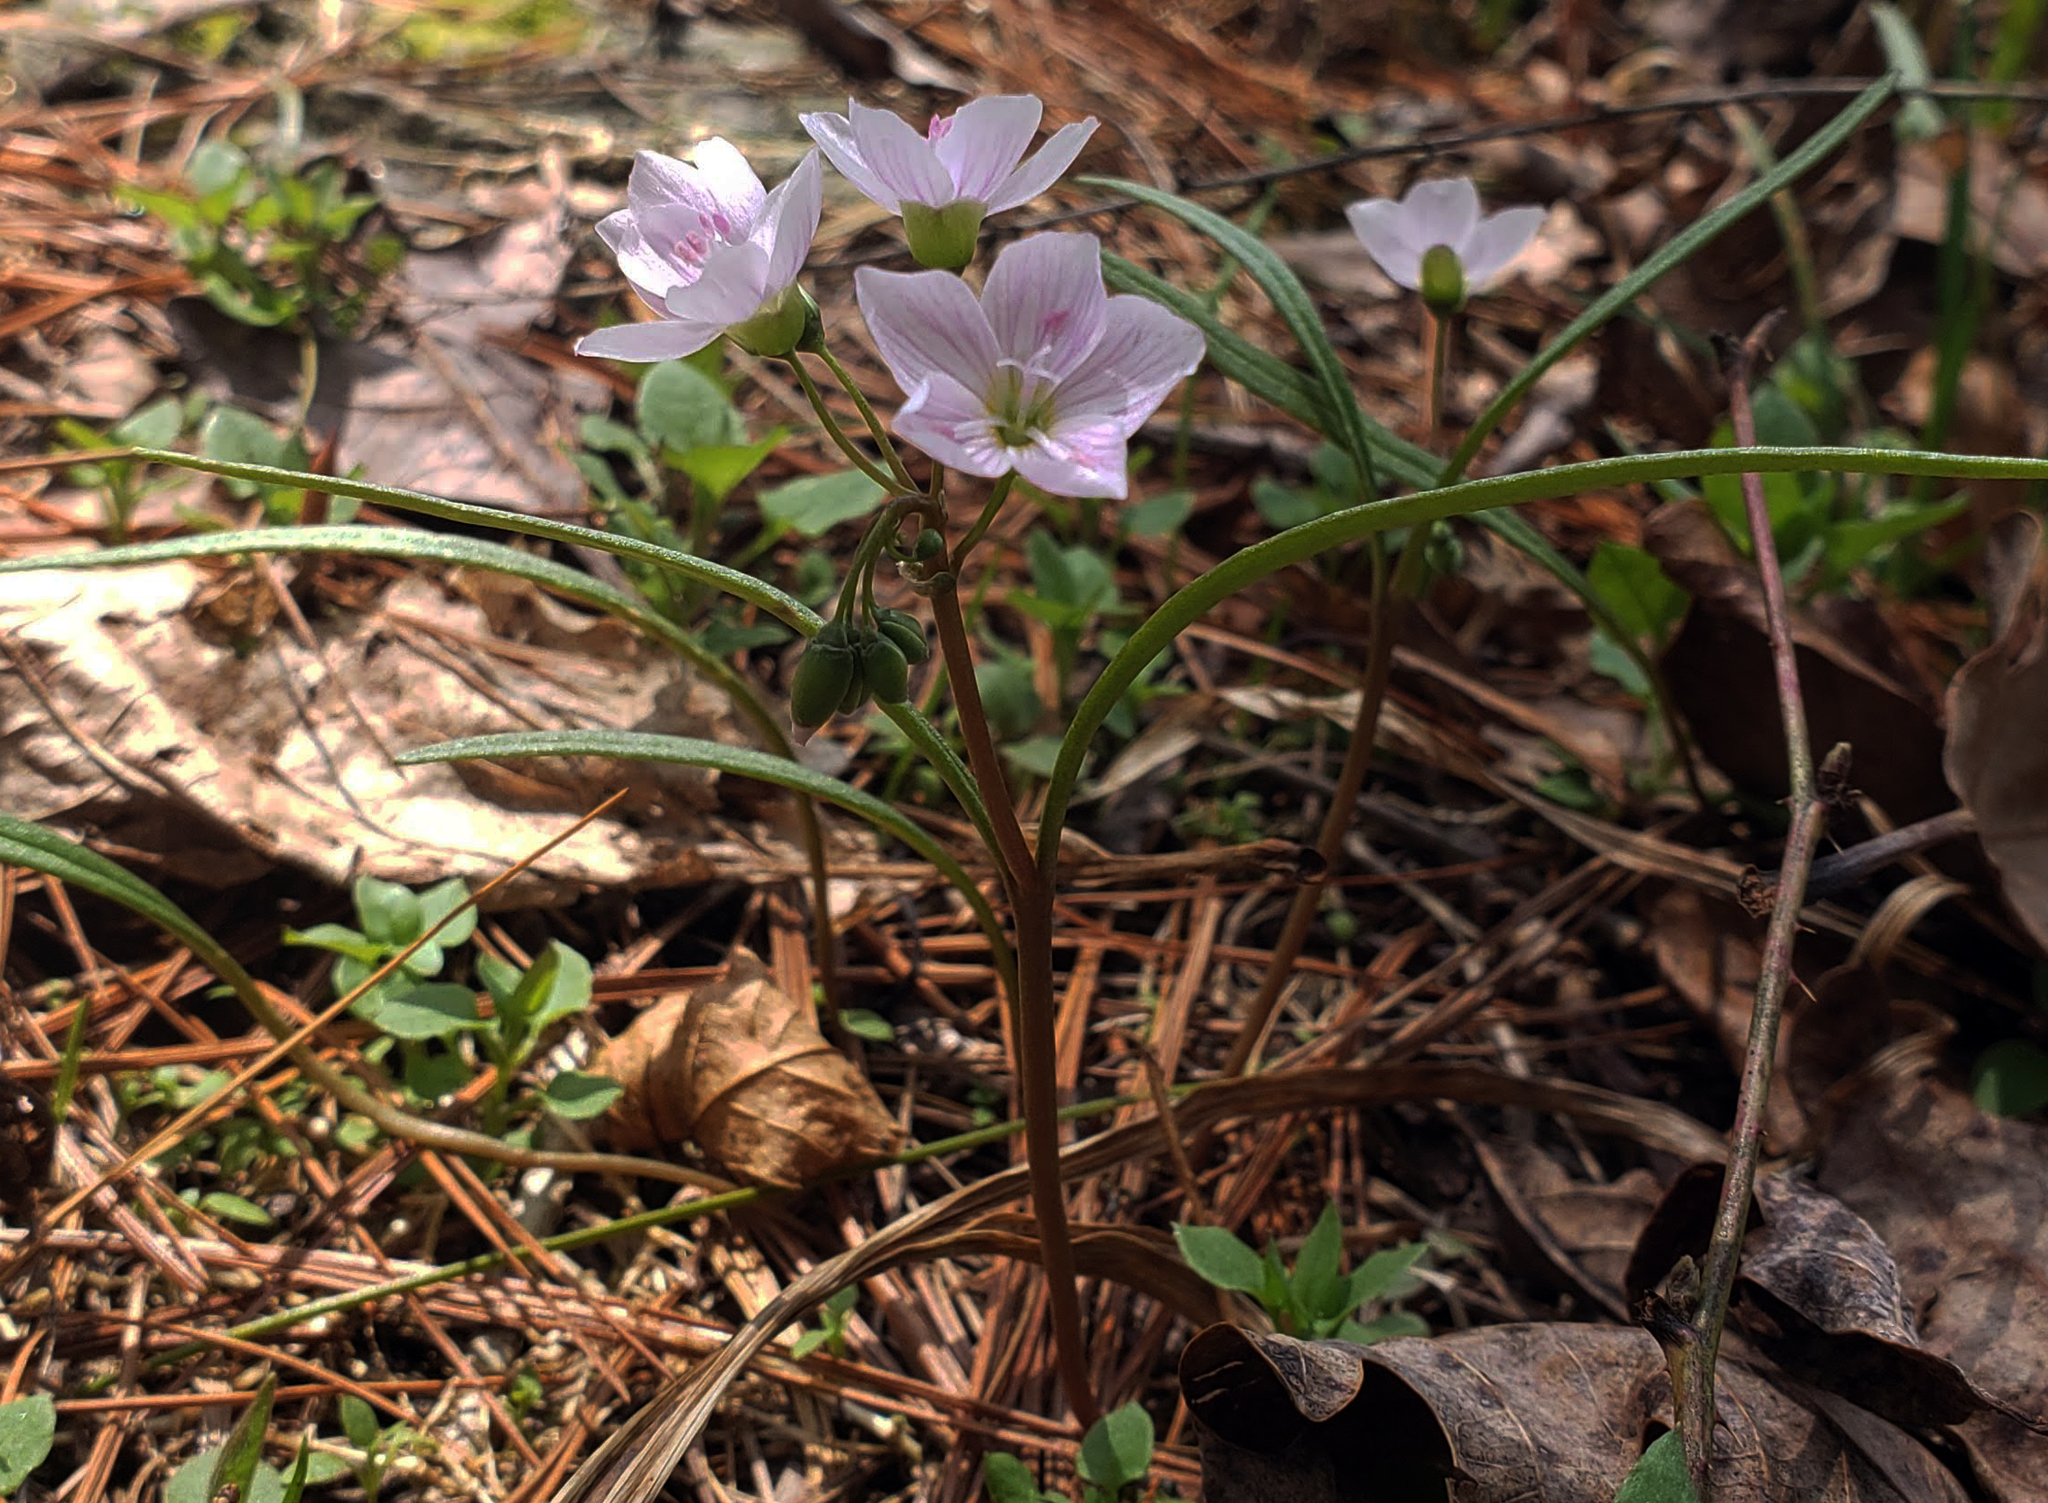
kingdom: Plantae
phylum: Tracheophyta
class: Magnoliopsida
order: Caryophyllales
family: Montiaceae
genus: Claytonia
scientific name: Claytonia virginica
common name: Virginia springbeauty
